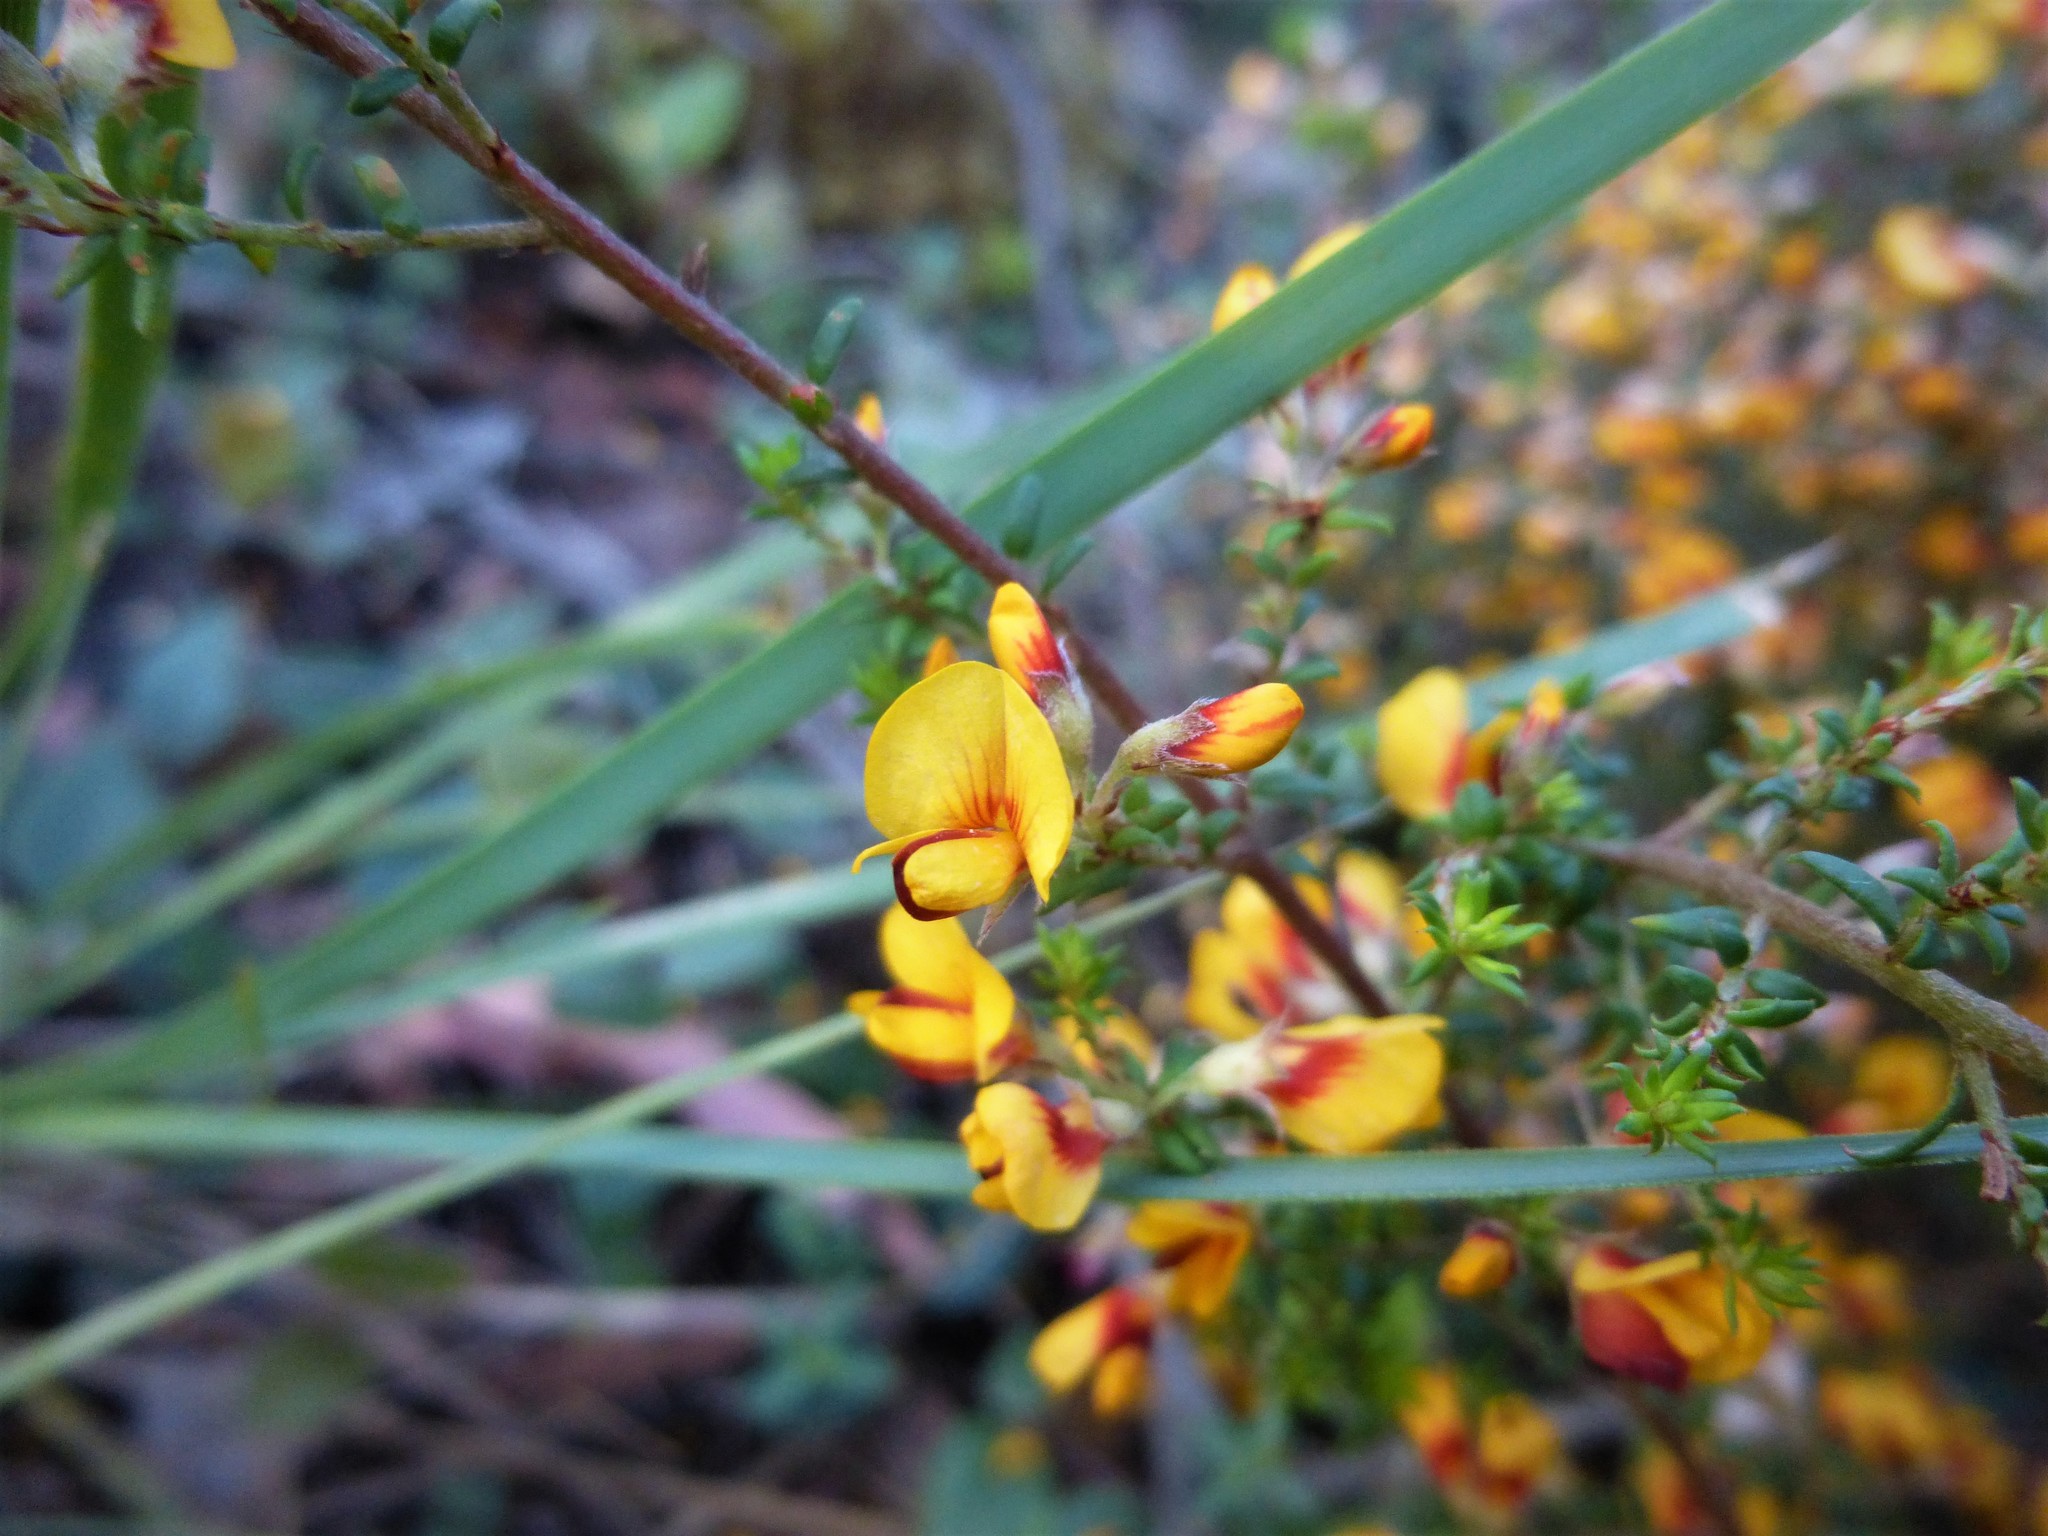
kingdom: Plantae
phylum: Tracheophyta
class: Magnoliopsida
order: Fabales
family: Fabaceae
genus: Pultenaea
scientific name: Pultenaea gunnii
